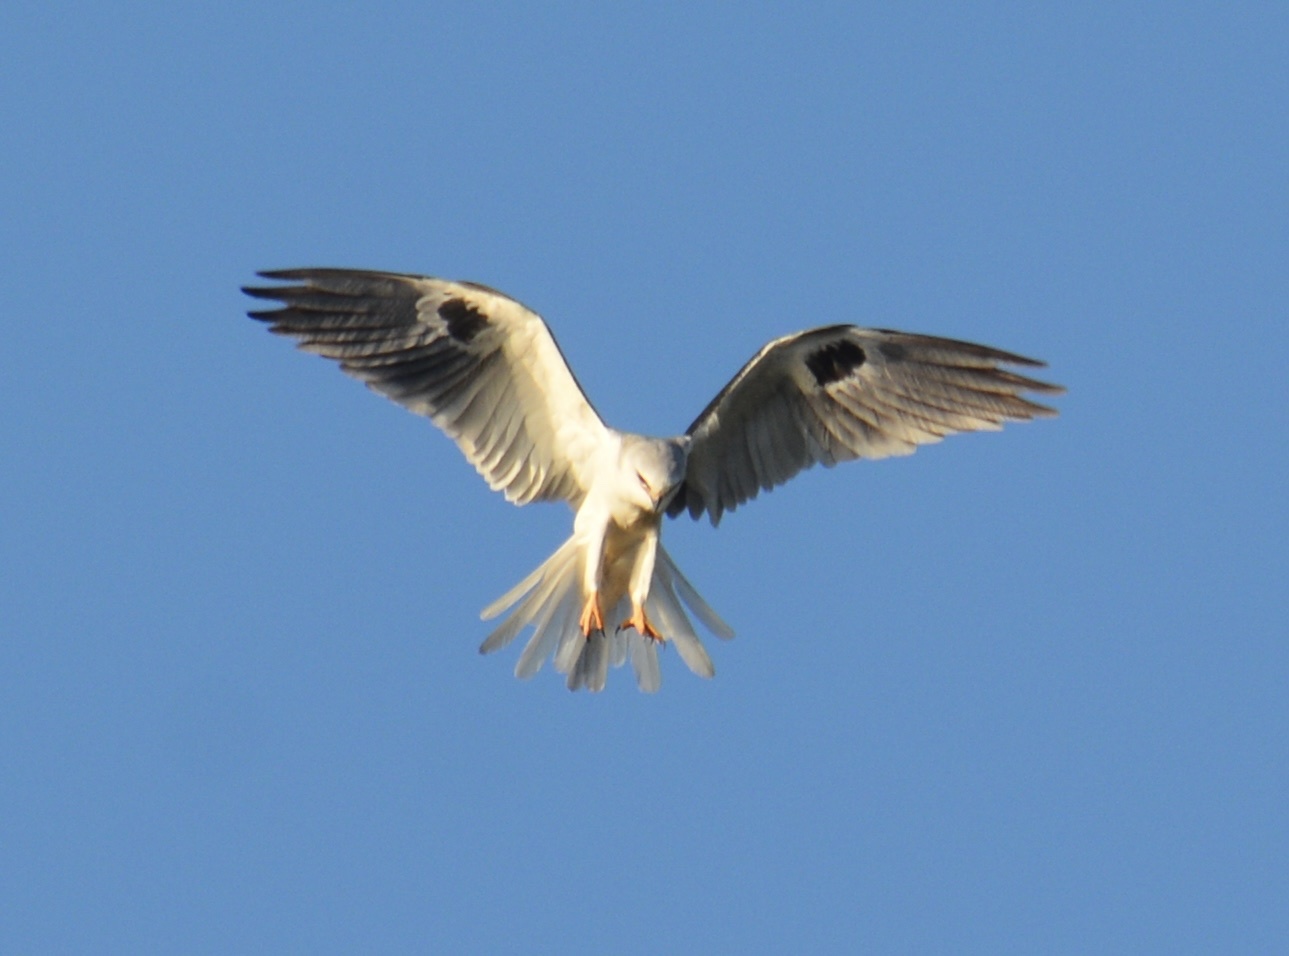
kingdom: Animalia
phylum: Chordata
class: Aves
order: Accipitriformes
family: Accipitridae
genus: Elanus
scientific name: Elanus leucurus
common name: White-tailed kite
